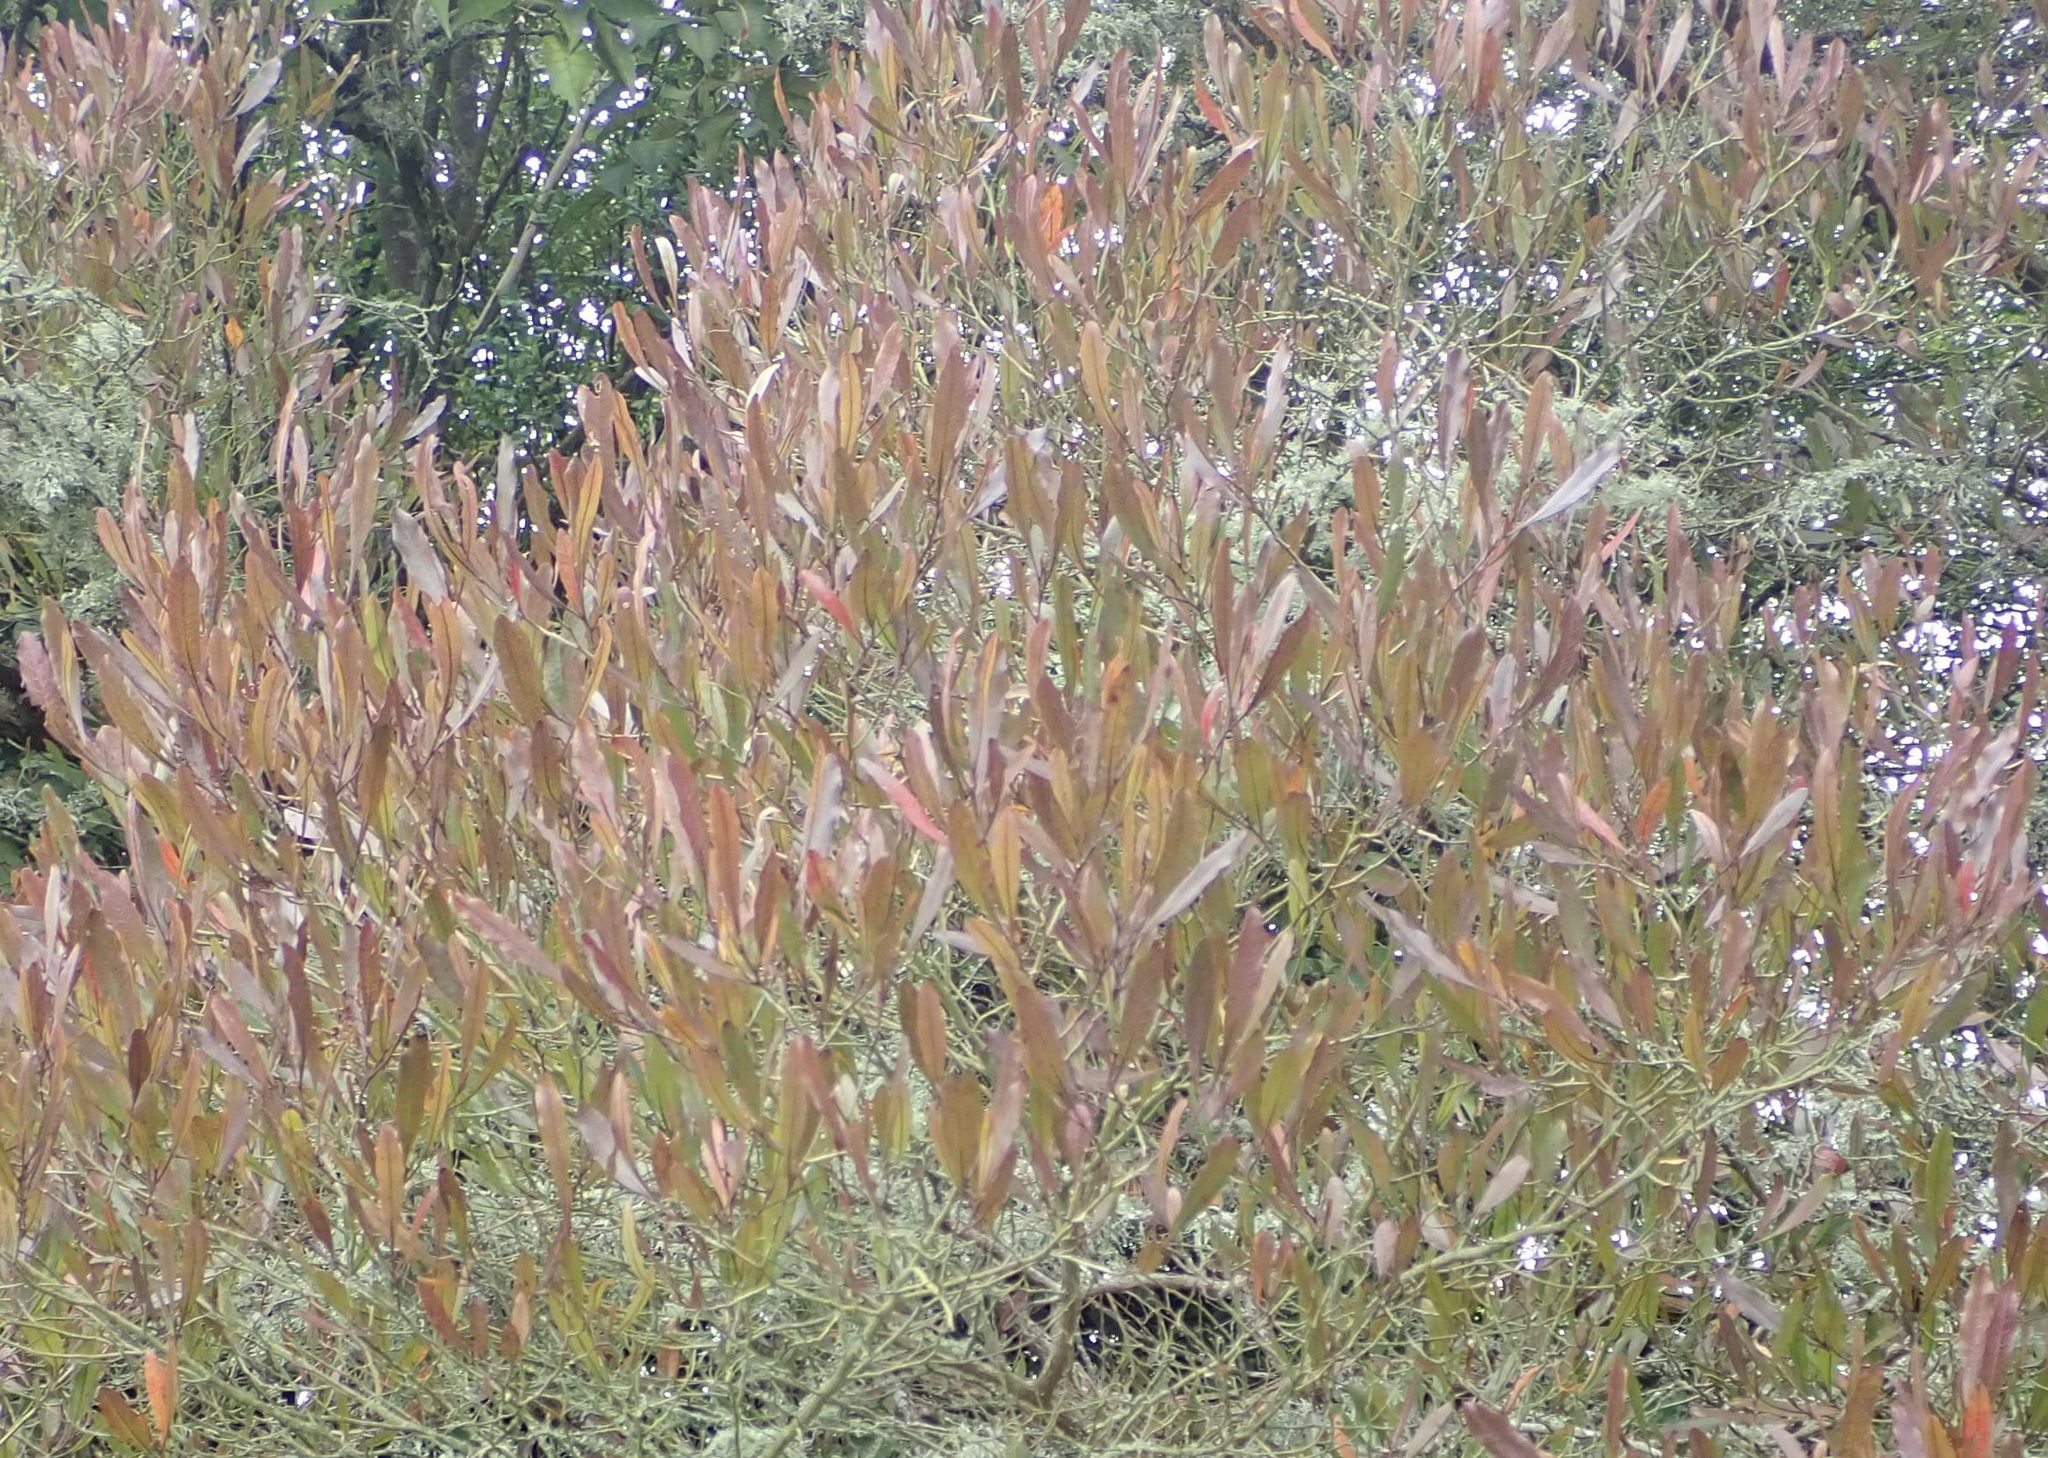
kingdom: Plantae
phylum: Tracheophyta
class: Magnoliopsida
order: Sapindales
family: Sapindaceae
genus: Dodonaea
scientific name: Dodonaea viscosa
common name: Hopbush
